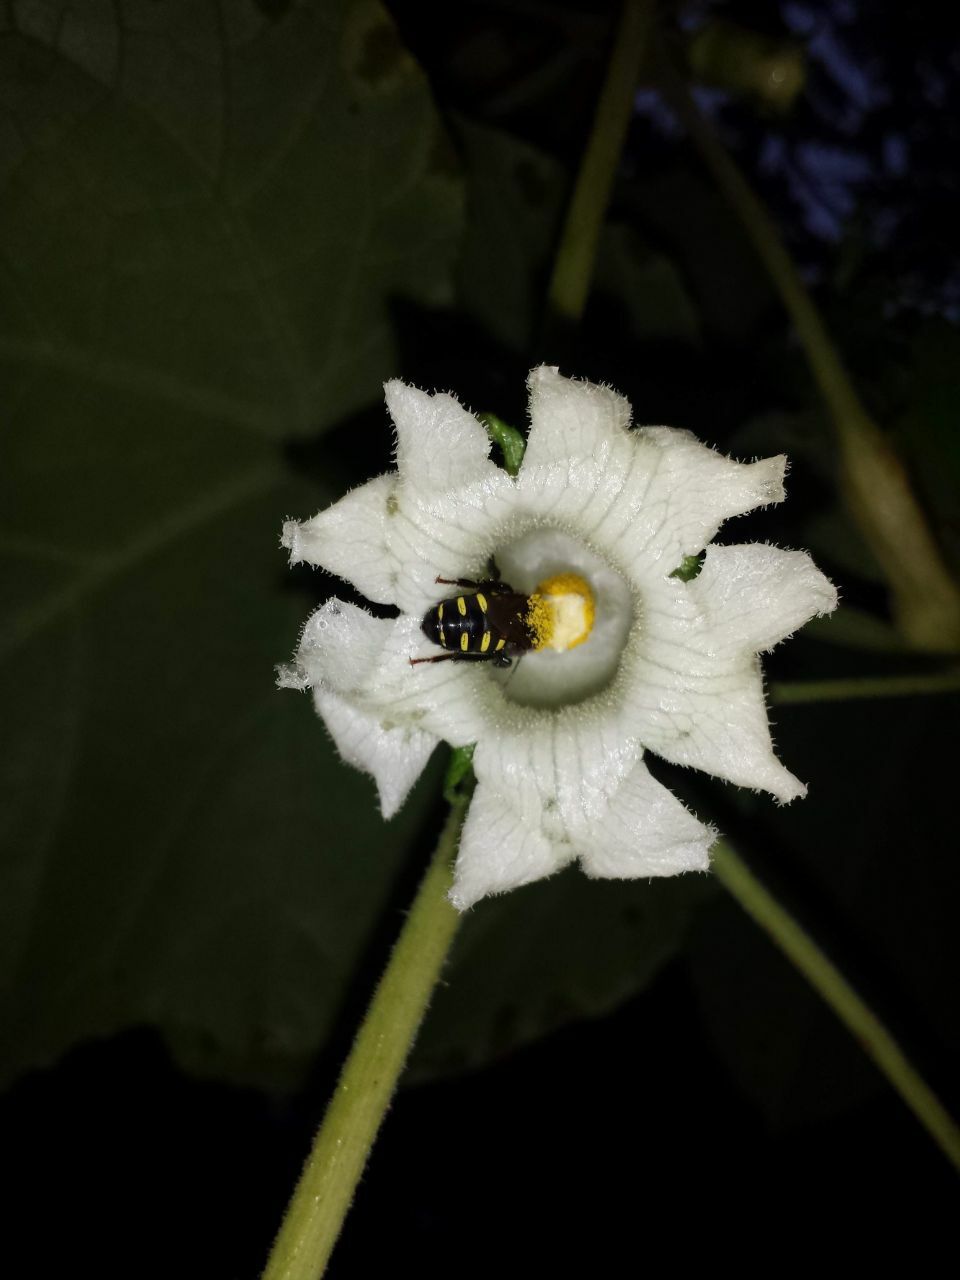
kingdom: Animalia
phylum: Arthropoda
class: Insecta
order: Hymenoptera
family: Apidae
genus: Melipona
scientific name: Melipona quadrifasciata
